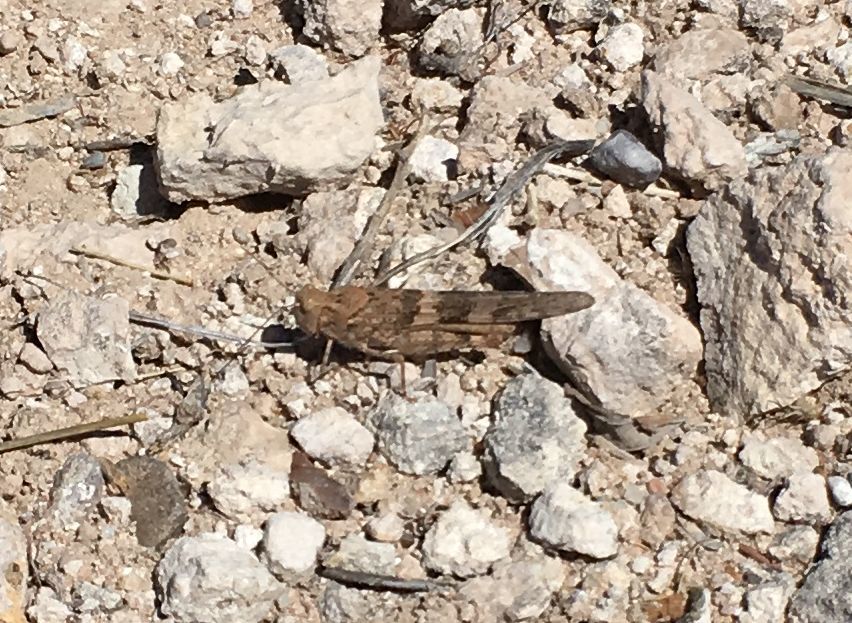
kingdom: Animalia
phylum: Arthropoda
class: Insecta
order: Orthoptera
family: Acrididae
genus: Trimerotropis
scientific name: Trimerotropis pallidipennis
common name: Pallid-winged grasshopper
